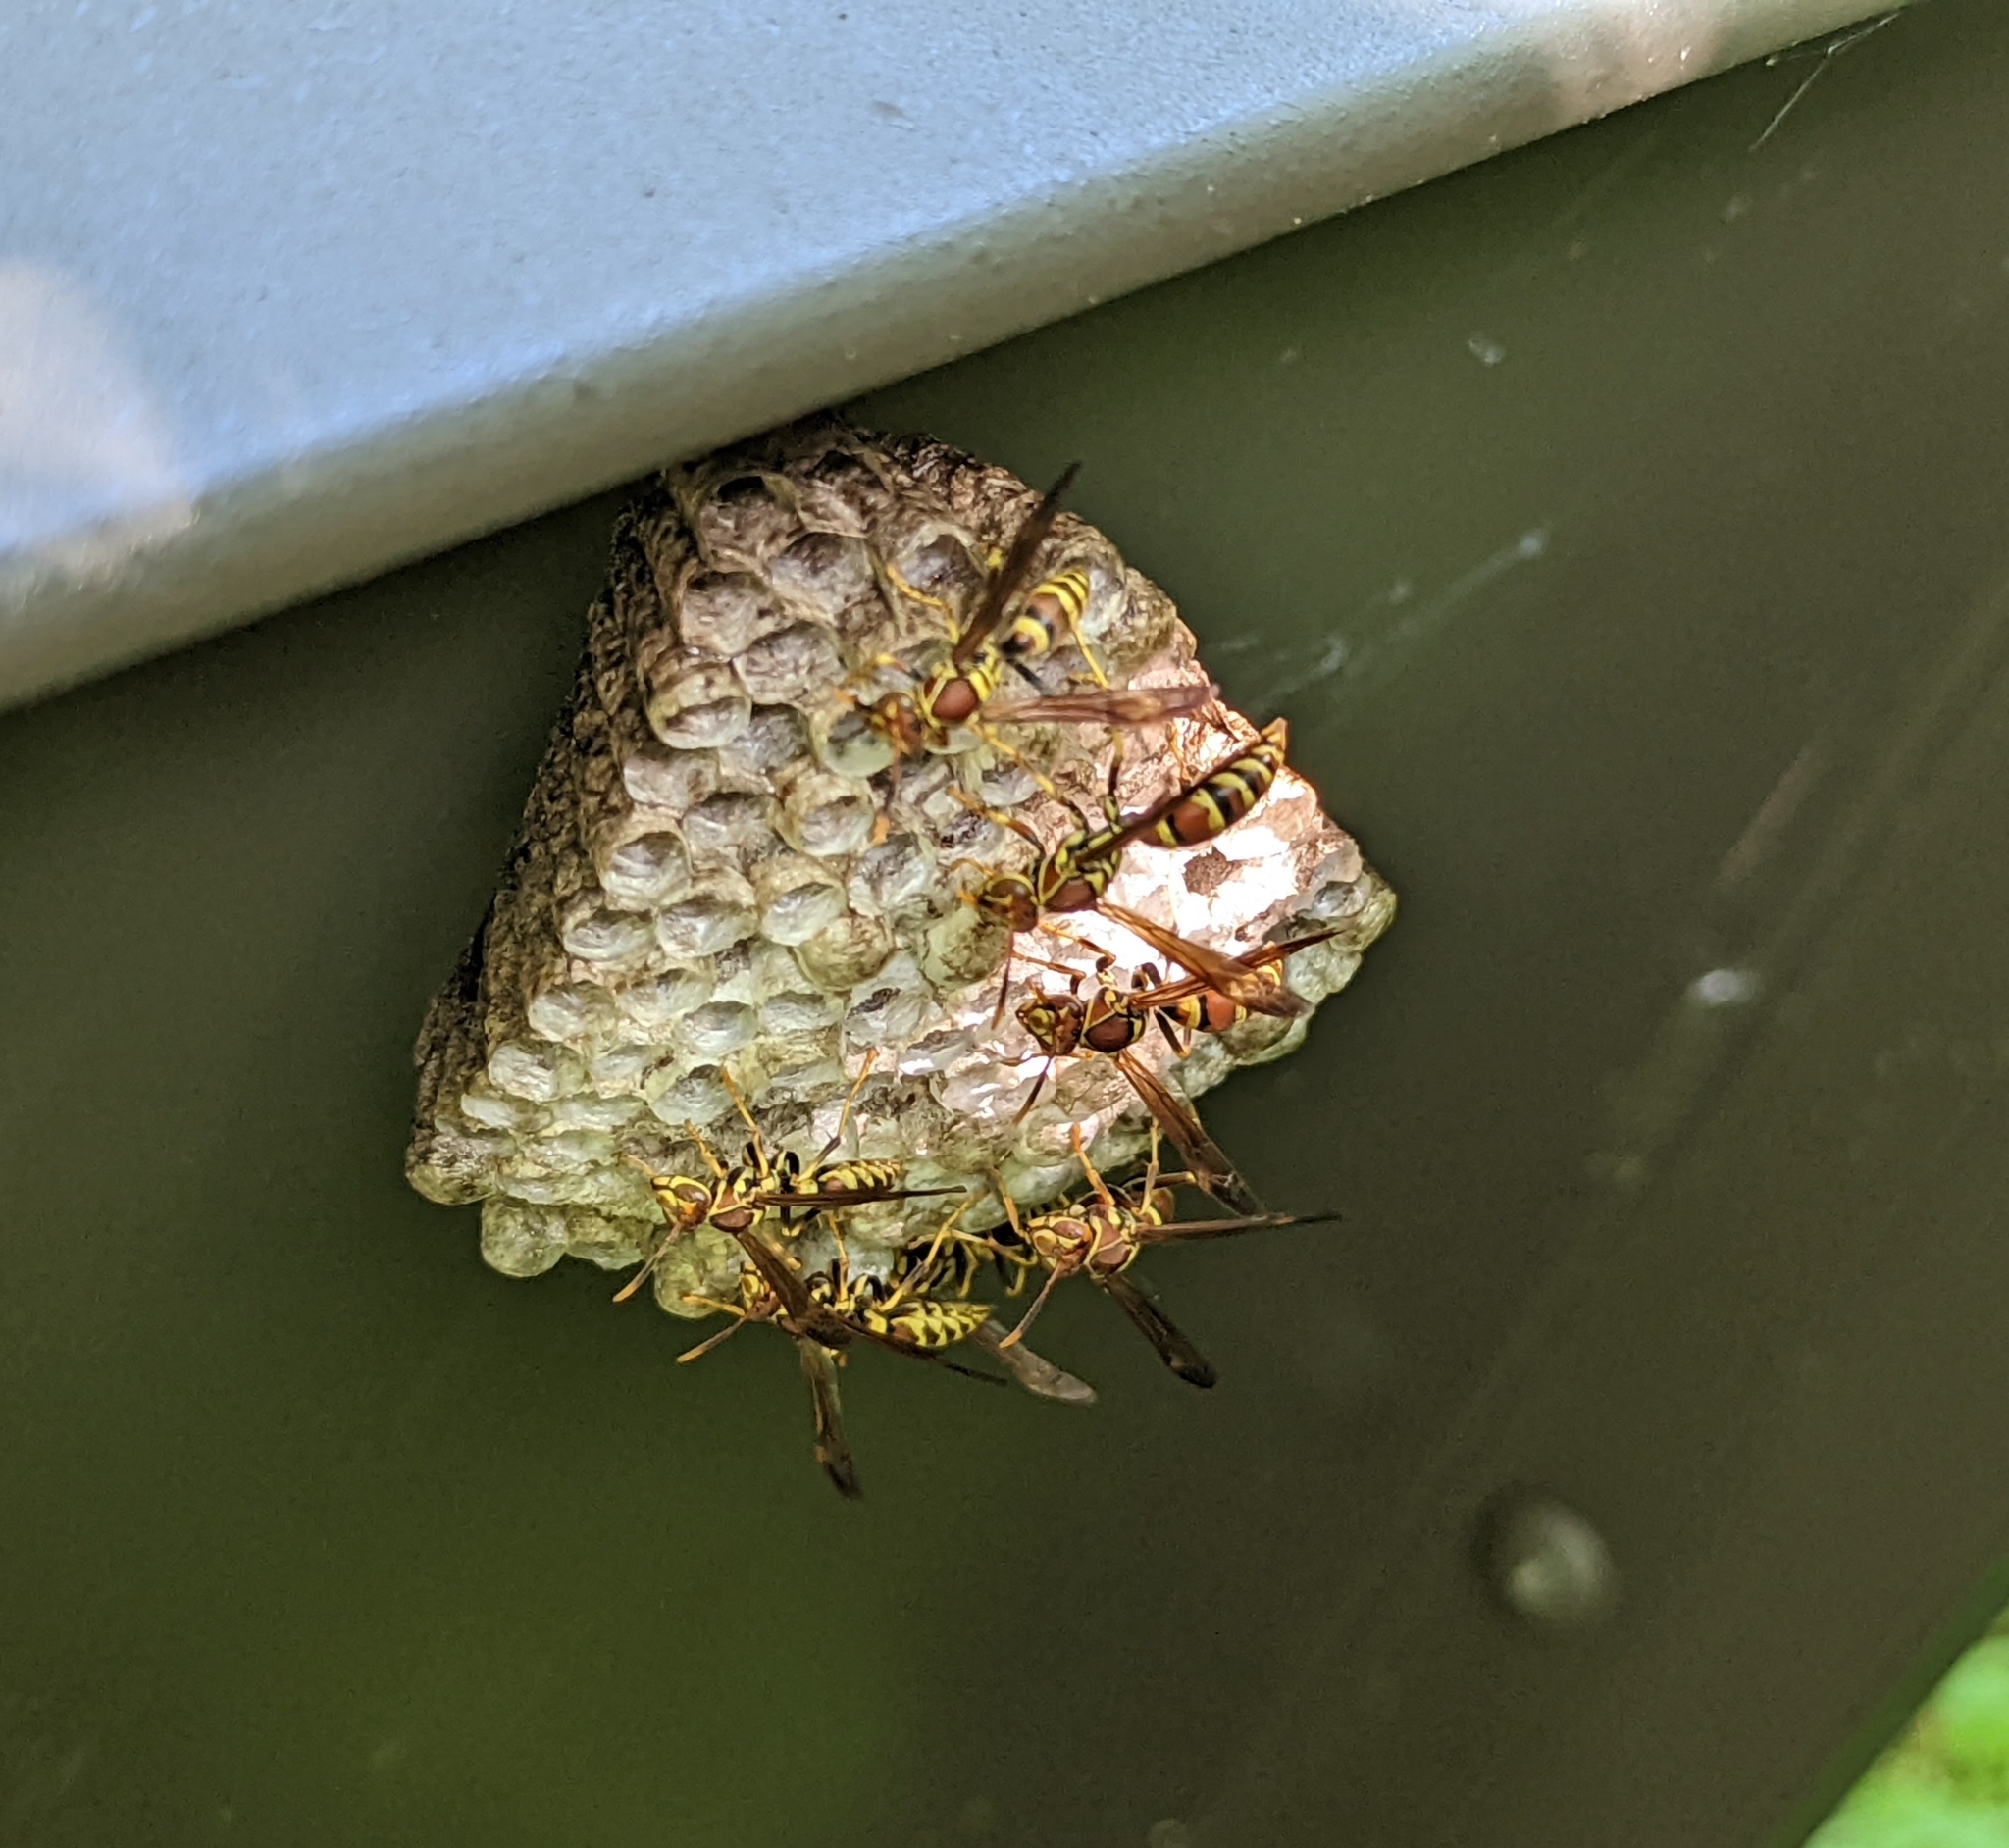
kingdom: Animalia
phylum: Arthropoda
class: Insecta
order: Hymenoptera
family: Eumenidae
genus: Polistes
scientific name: Polistes exclamans
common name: Paper wasp
